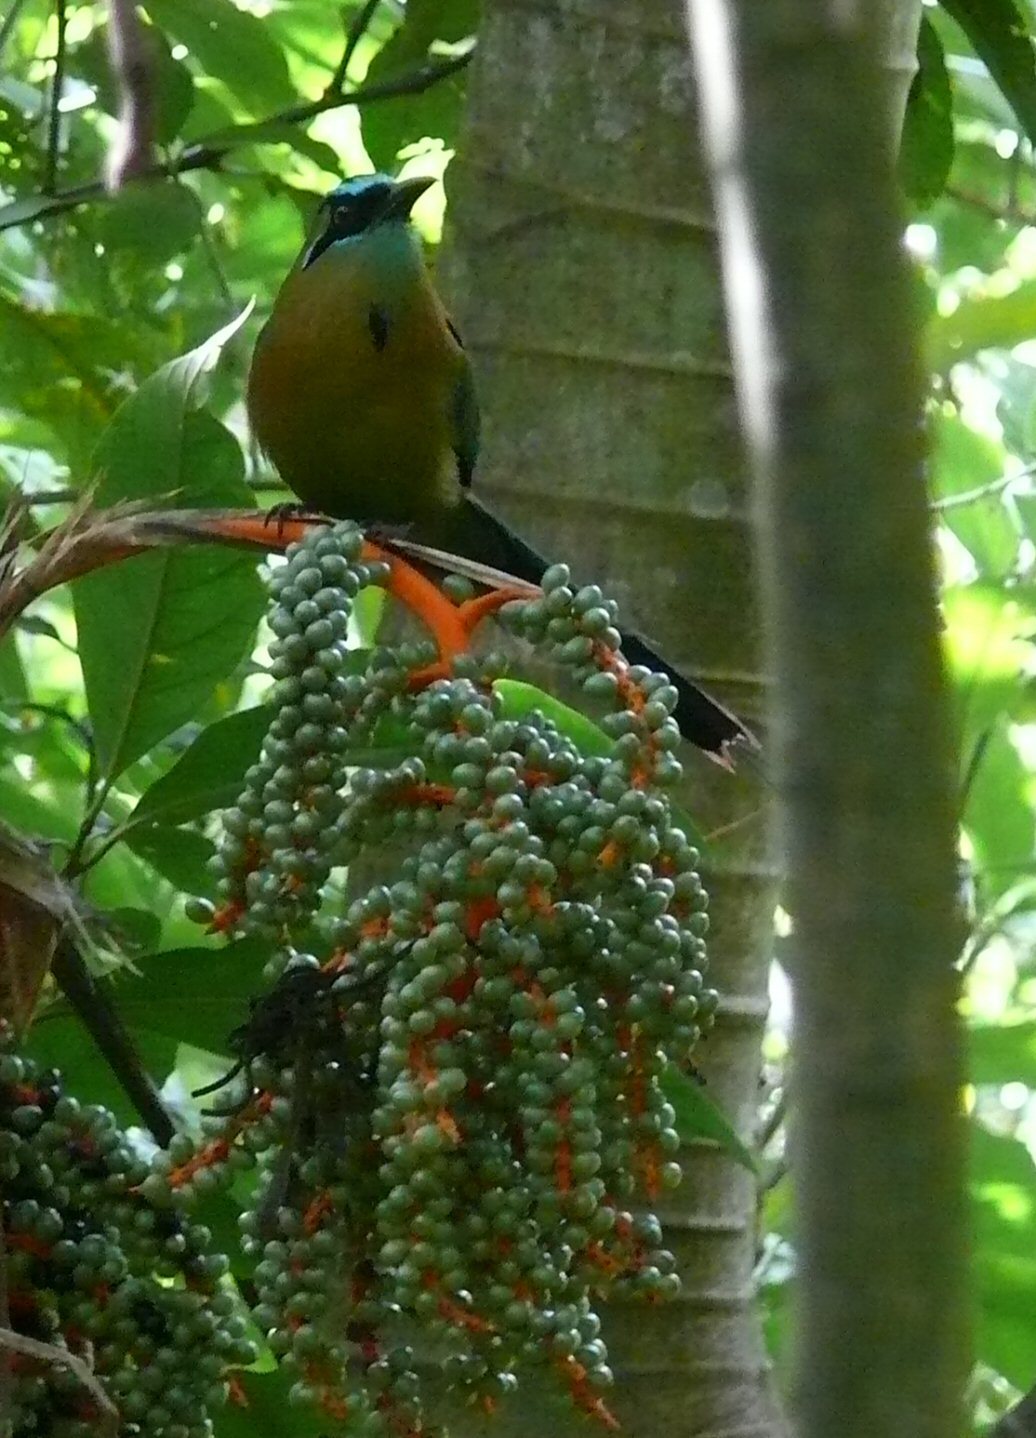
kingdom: Animalia
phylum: Chordata
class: Aves
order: Coraciiformes
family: Momotidae
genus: Momotus
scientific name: Momotus lessonii
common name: Lesson's motmot
